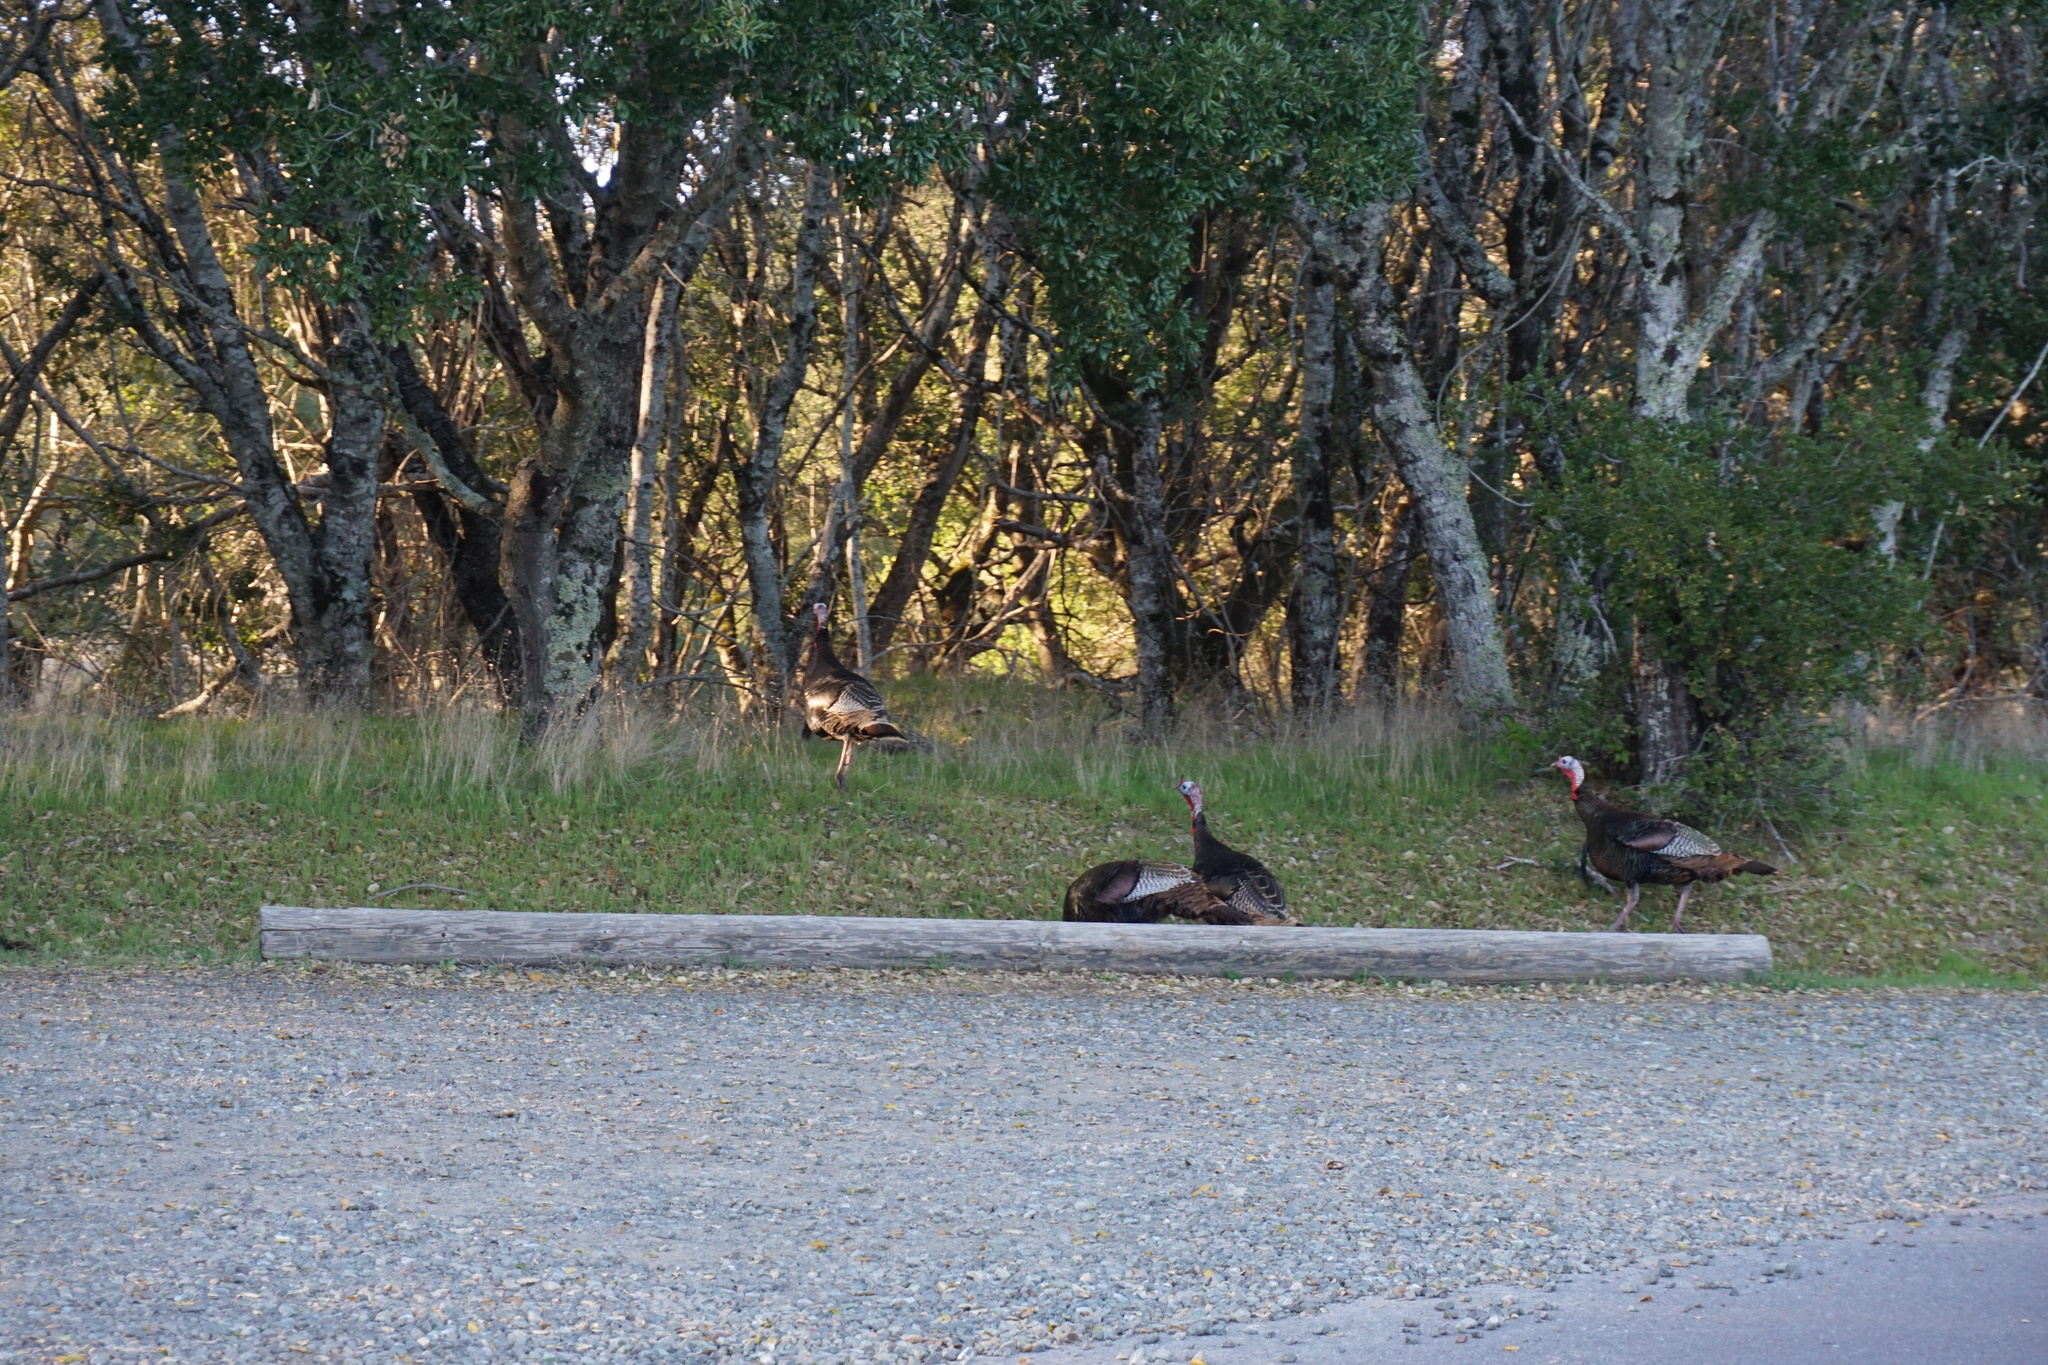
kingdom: Animalia
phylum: Chordata
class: Aves
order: Galliformes
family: Phasianidae
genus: Meleagris
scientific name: Meleagris gallopavo
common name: Wild turkey
